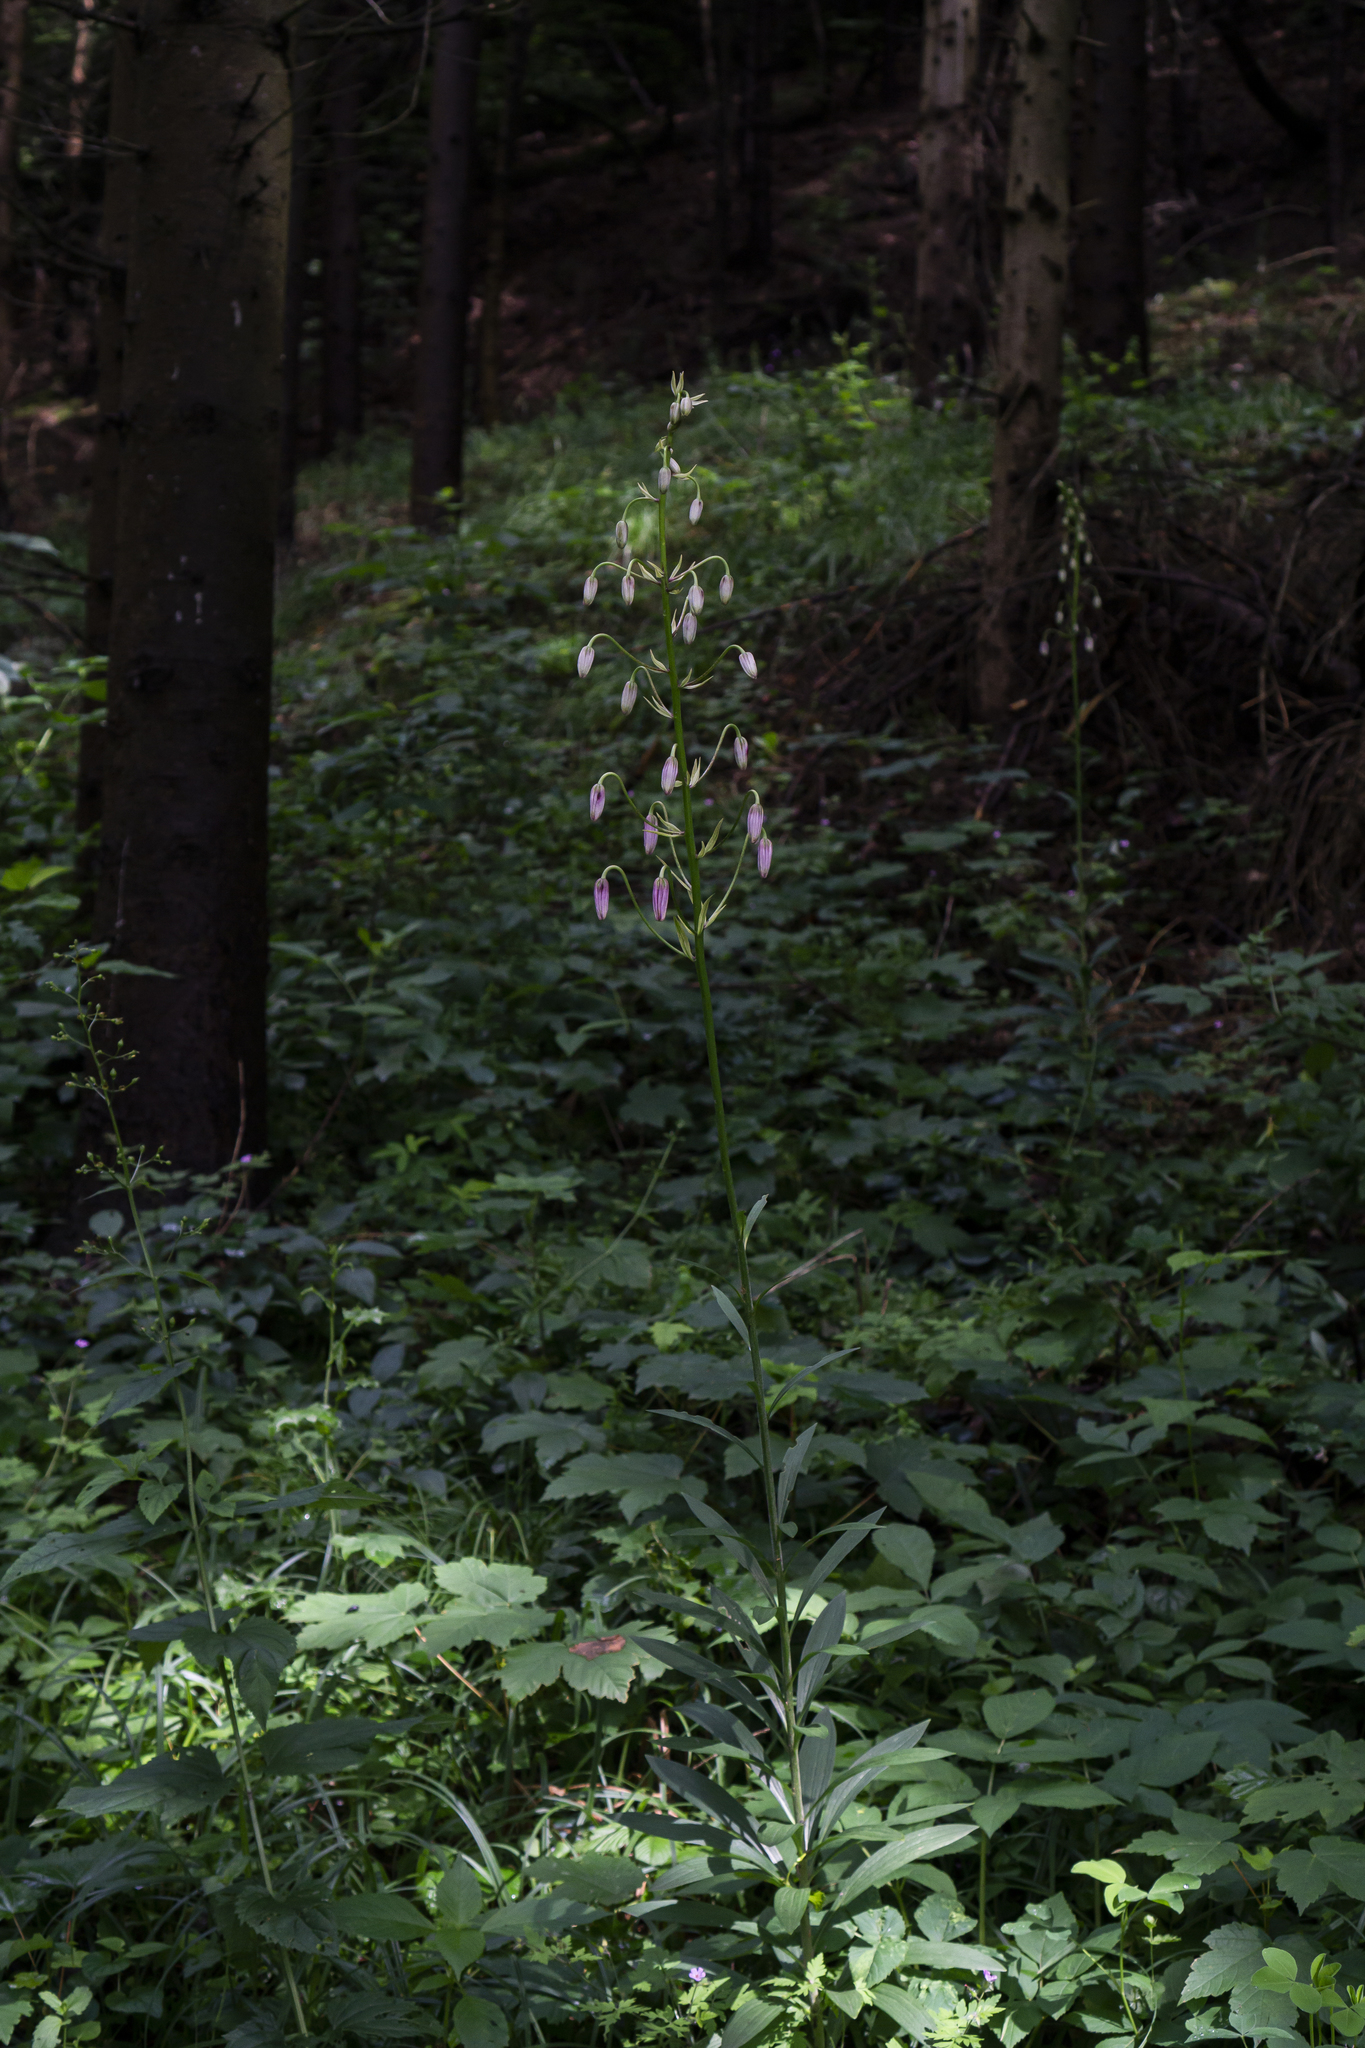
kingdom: Plantae
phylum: Tracheophyta
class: Liliopsida
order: Liliales
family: Liliaceae
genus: Lilium
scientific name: Lilium martagon
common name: Martagon lily
